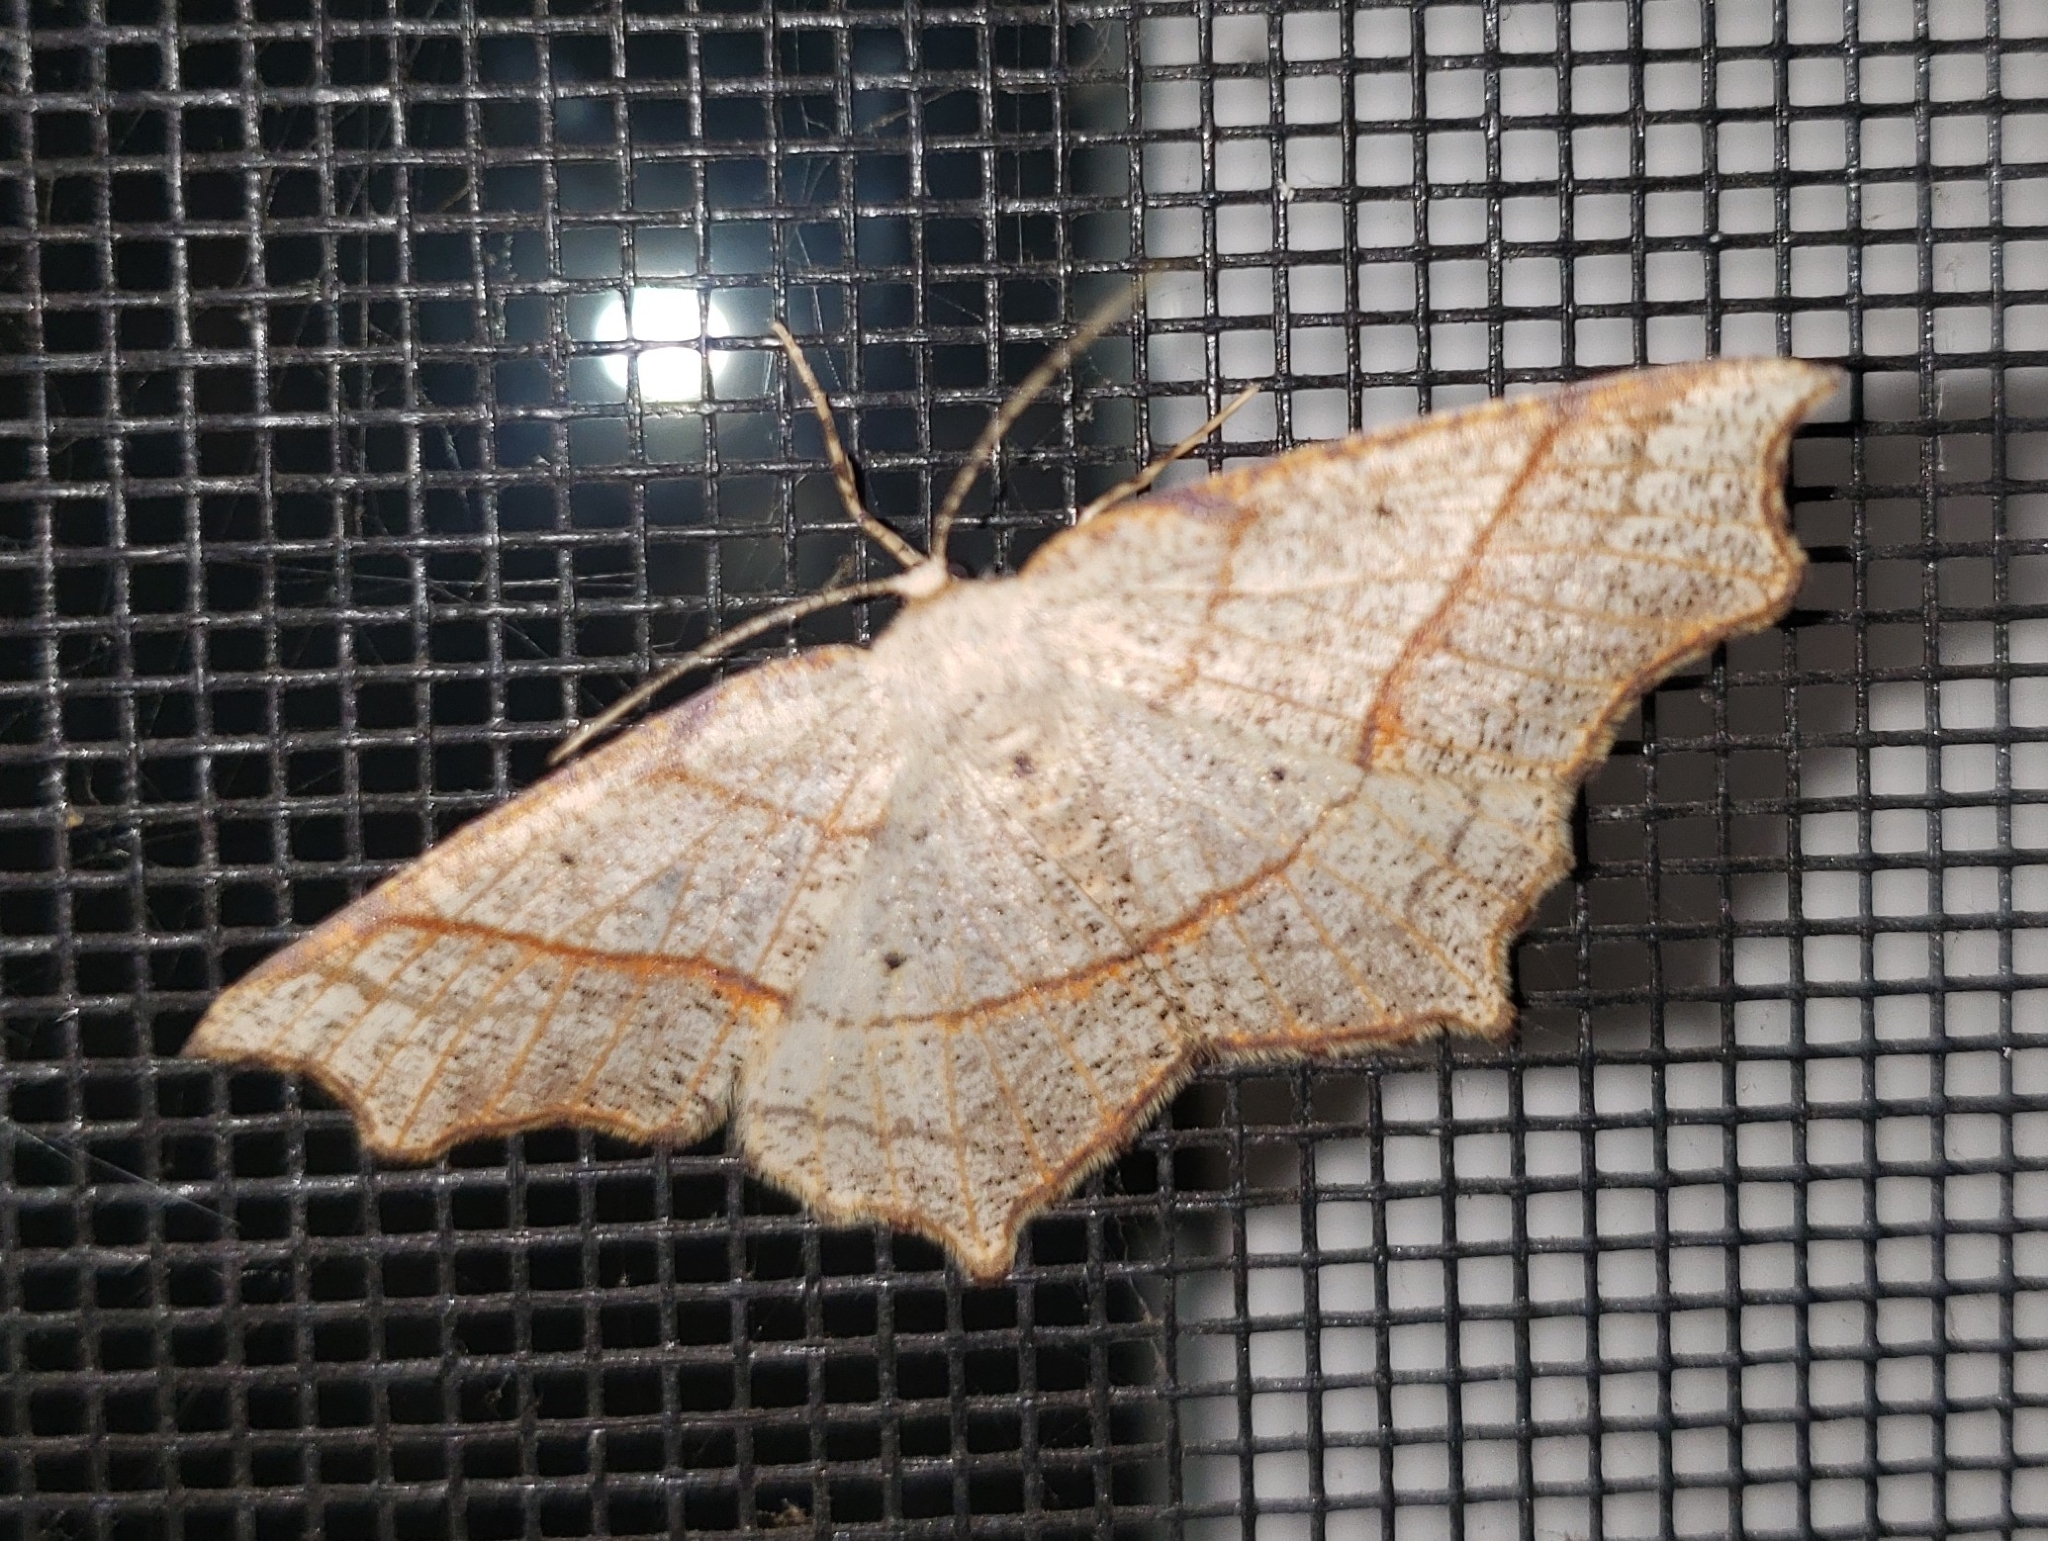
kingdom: Animalia
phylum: Arthropoda
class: Insecta
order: Lepidoptera
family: Geometridae
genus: Besma
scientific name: Besma quercivoraria
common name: Oak besma
